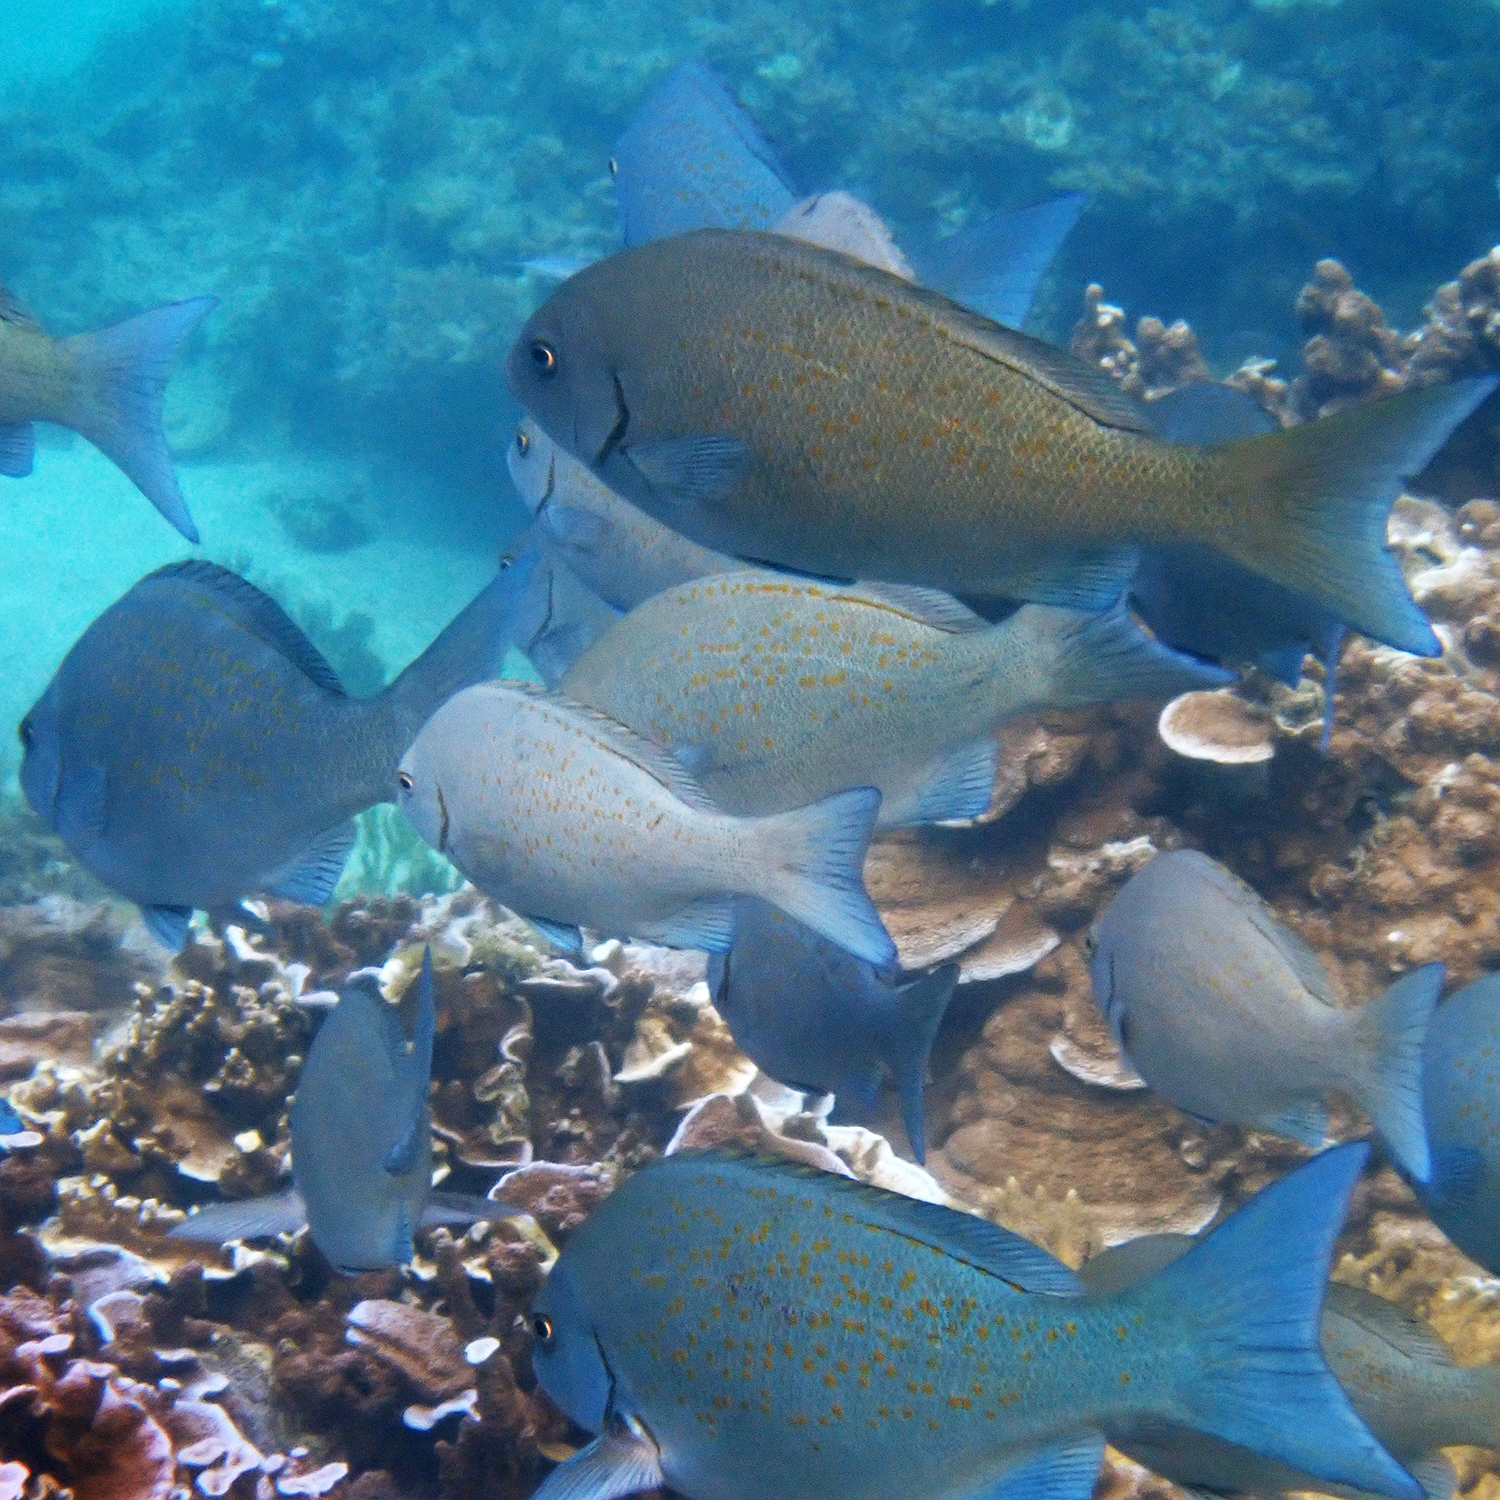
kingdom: Animalia
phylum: Chordata
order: Perciformes
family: Kyphosidae
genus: Girella
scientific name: Girella cyanea
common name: Bluefish
